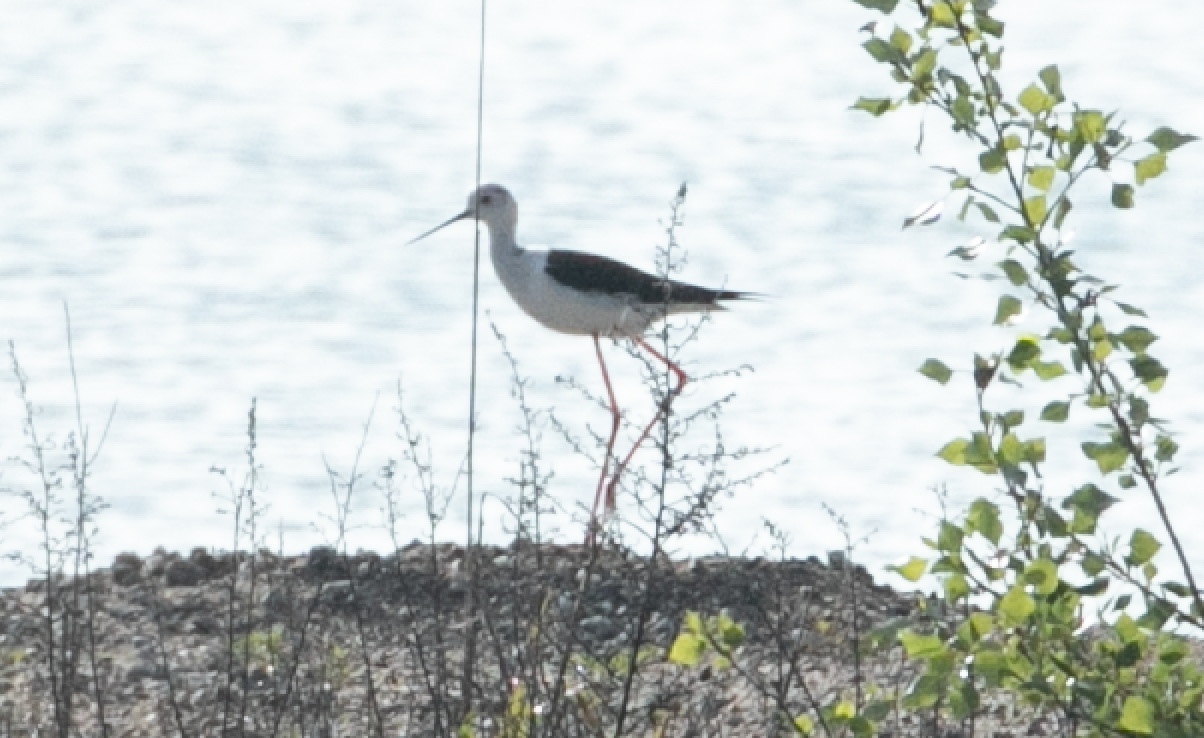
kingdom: Animalia
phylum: Chordata
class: Aves
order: Charadriiformes
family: Recurvirostridae
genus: Himantopus
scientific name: Himantopus himantopus
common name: Black-winged stilt
